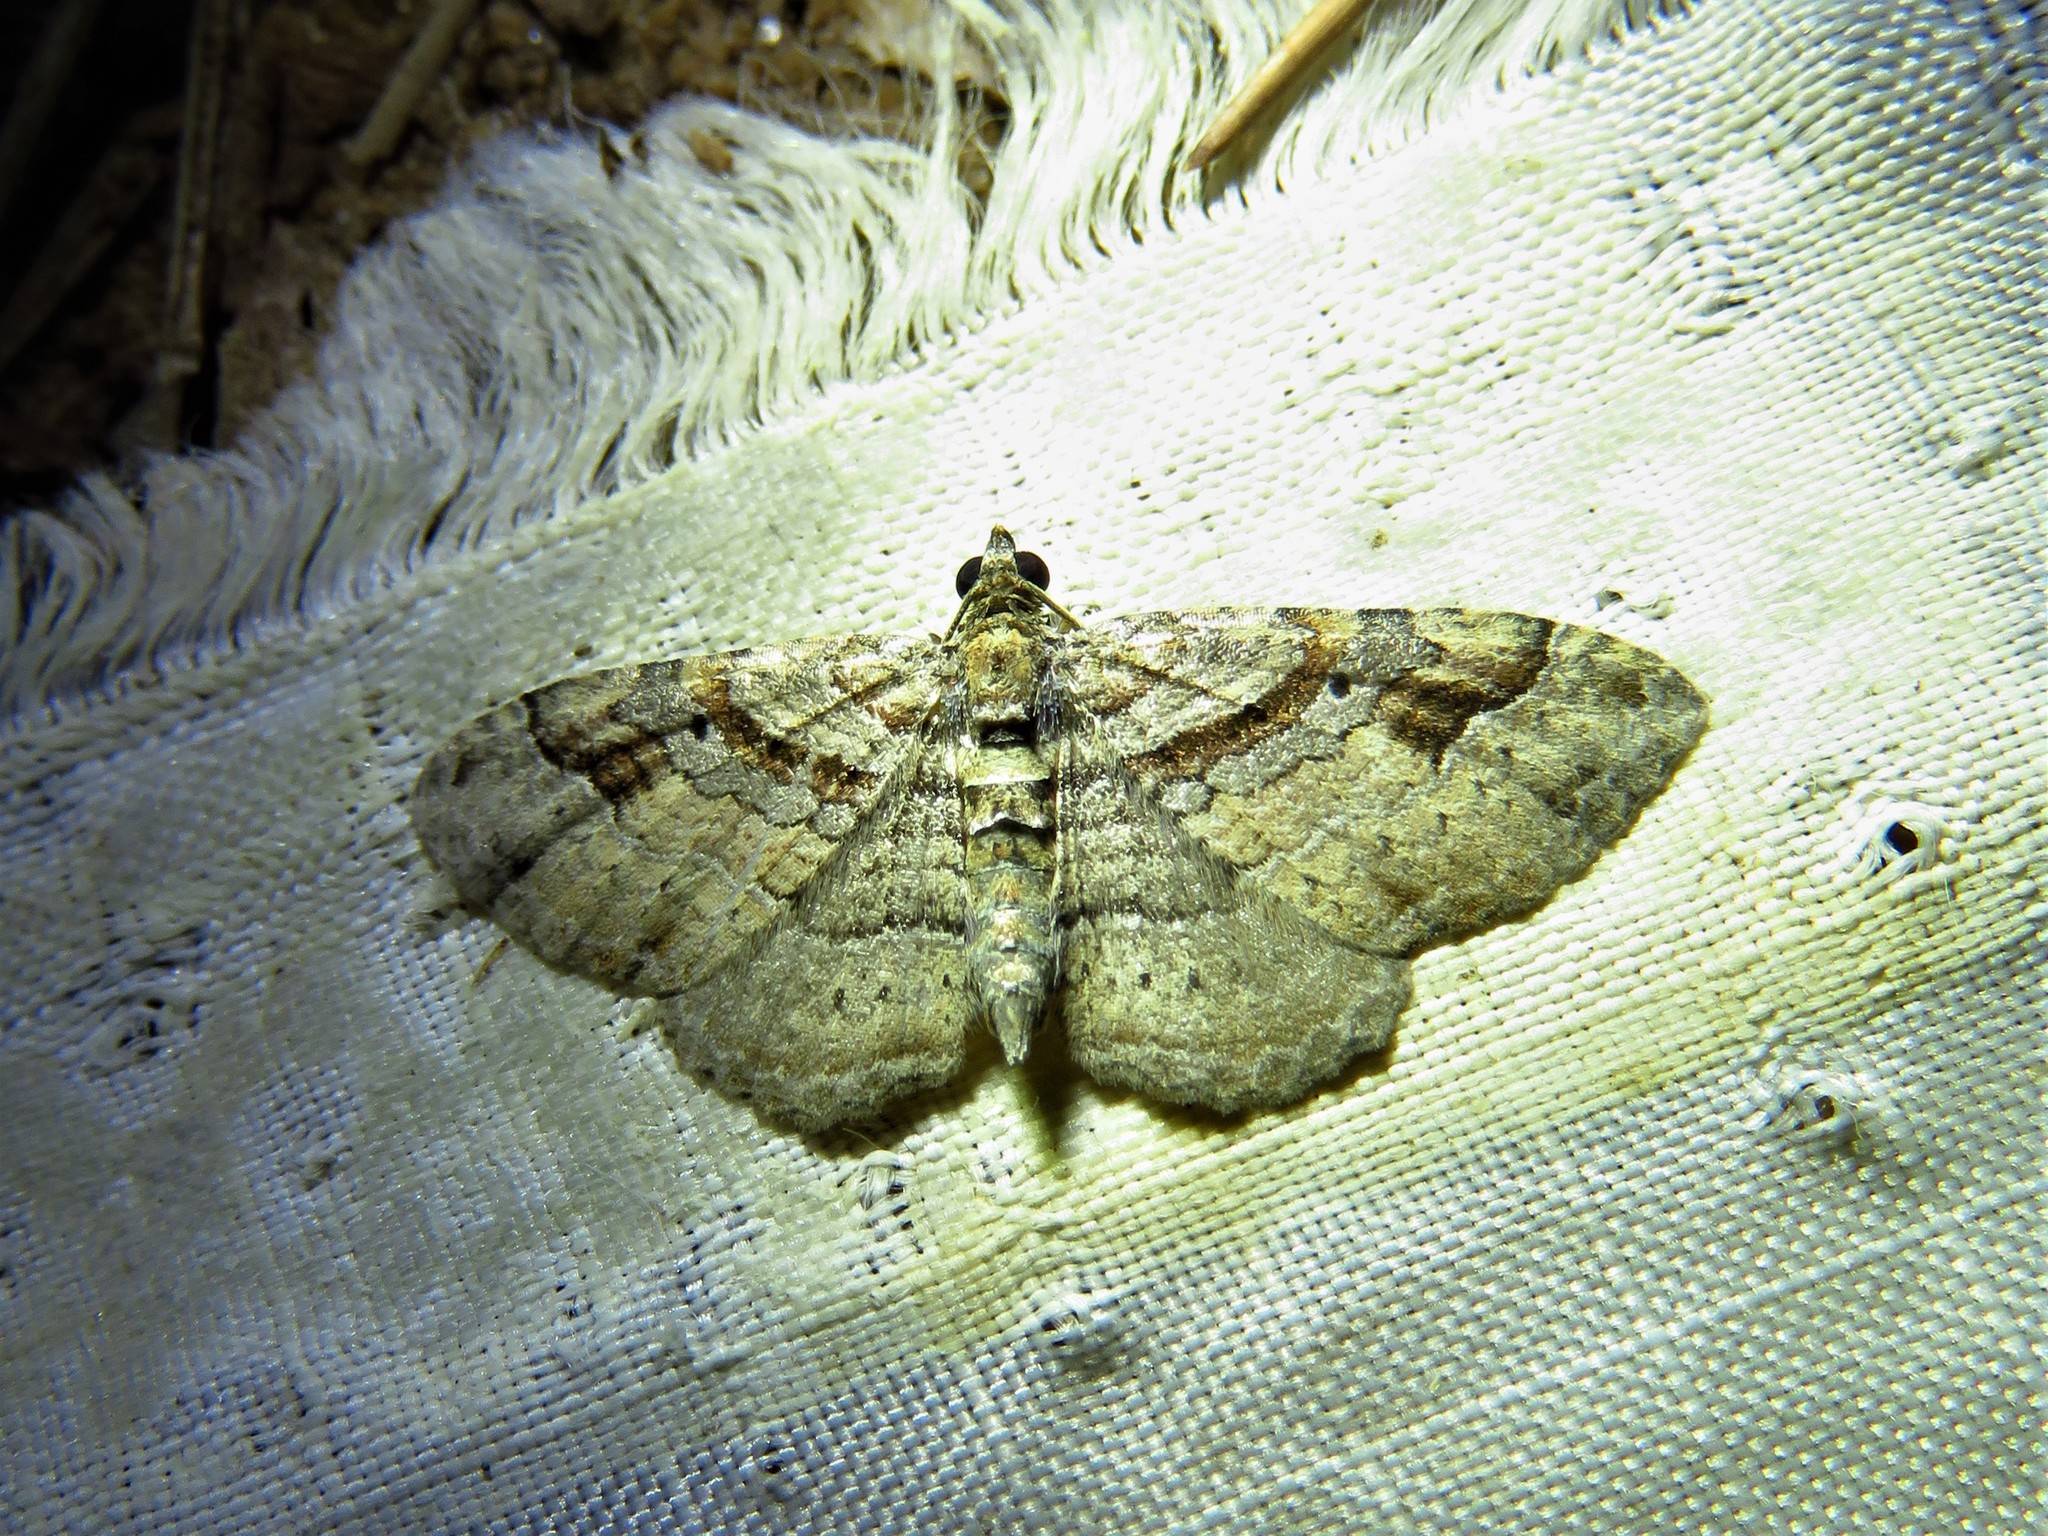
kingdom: Animalia
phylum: Arthropoda
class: Insecta
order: Lepidoptera
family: Geometridae
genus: Costaconvexa
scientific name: Costaconvexa centrostrigaria
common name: Bent-line carpet
